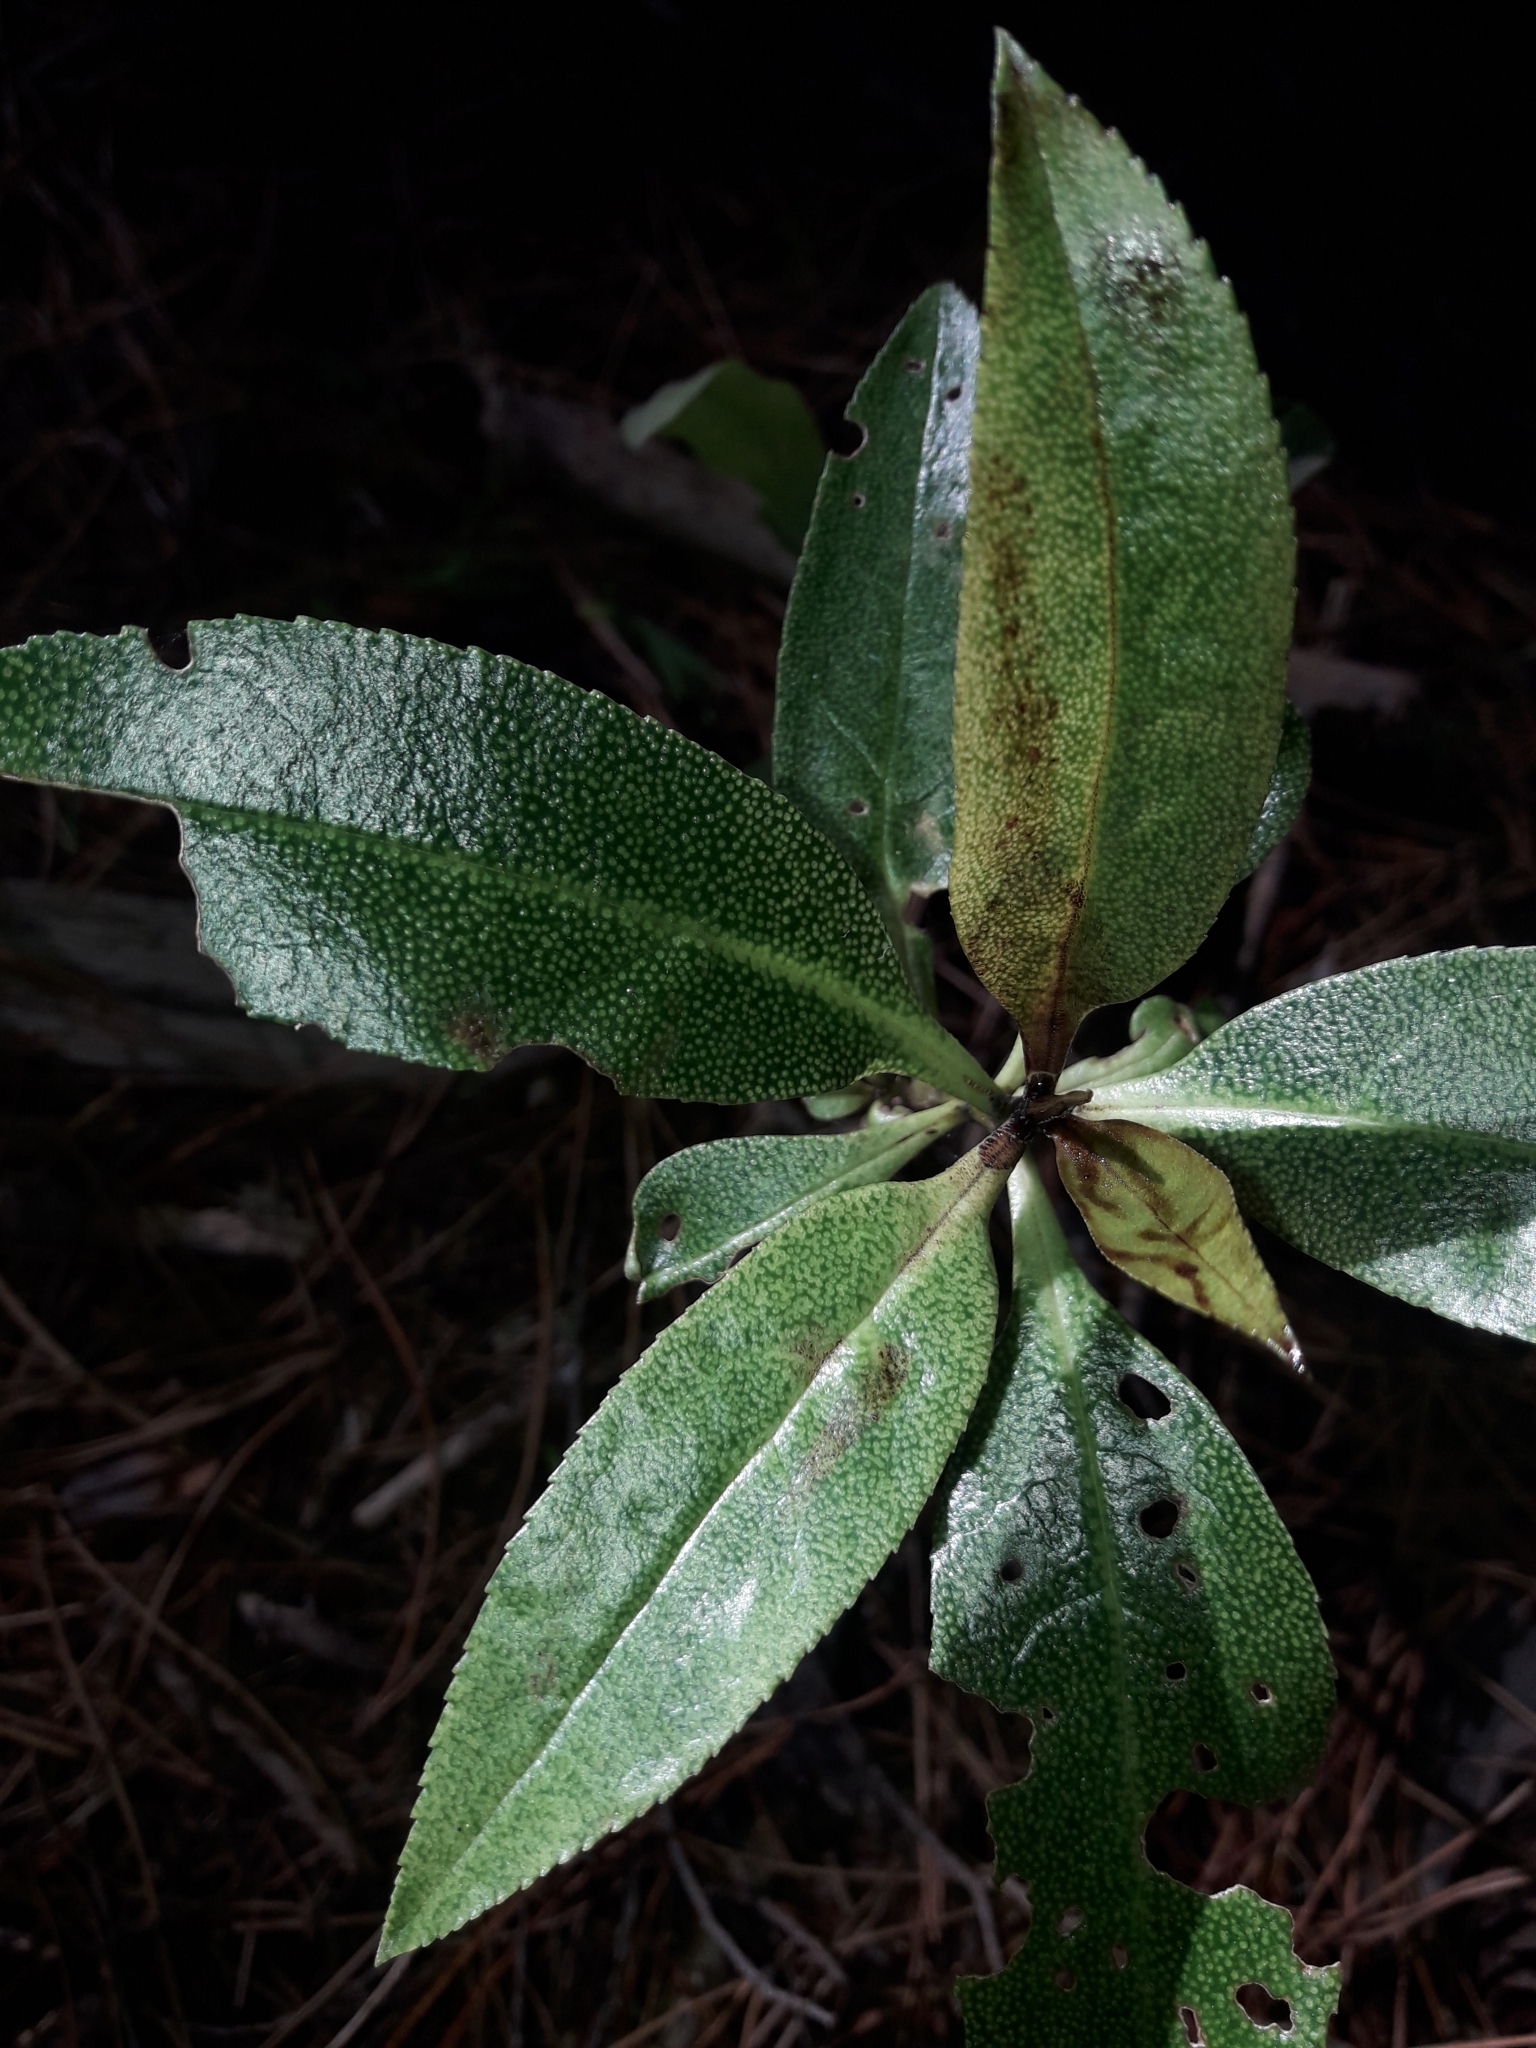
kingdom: Plantae
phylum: Tracheophyta
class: Magnoliopsida
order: Lamiales
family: Scrophulariaceae
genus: Myoporum
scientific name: Myoporum laetum
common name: Ngaio tree
